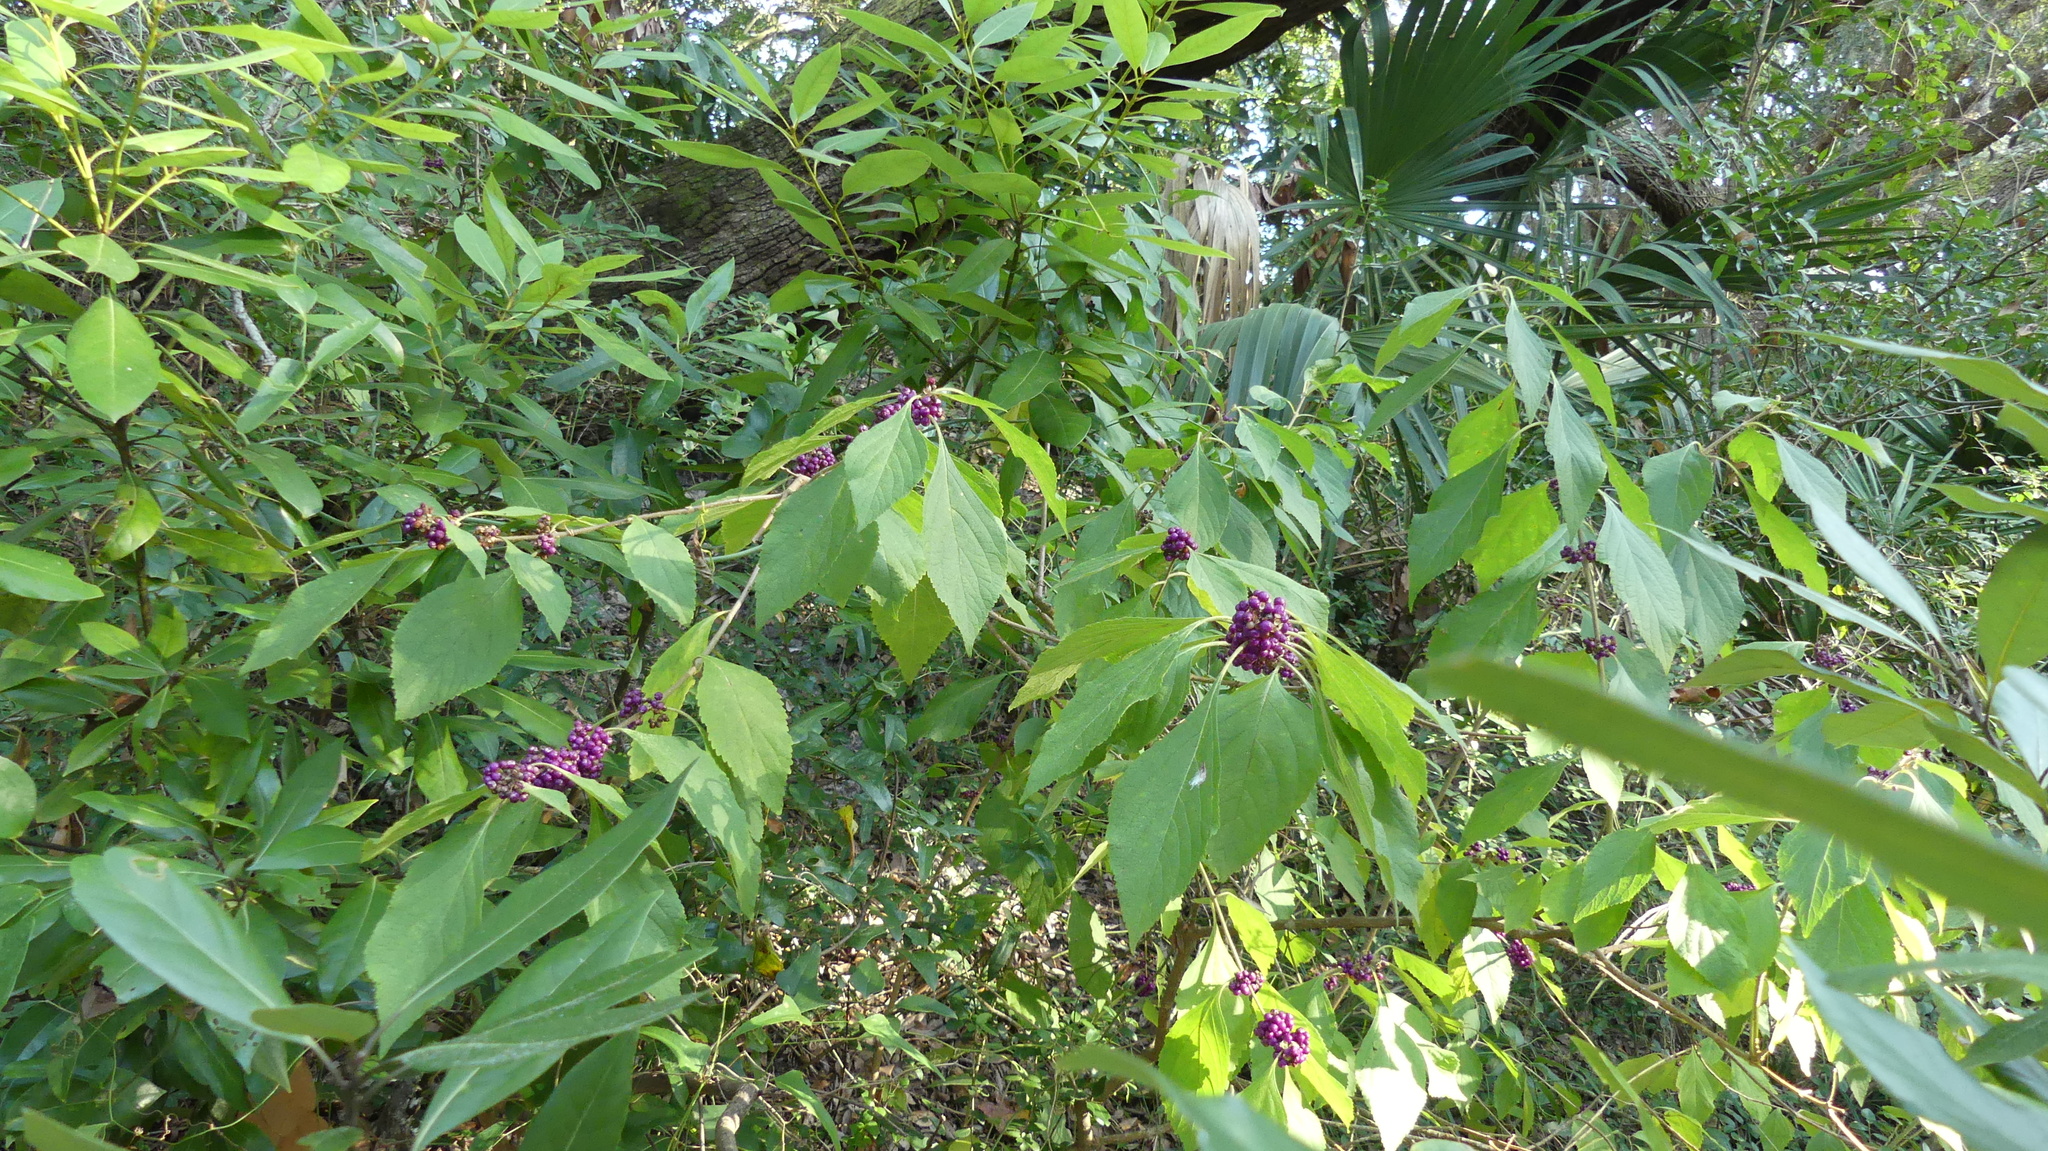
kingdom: Plantae
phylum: Tracheophyta
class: Magnoliopsida
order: Lamiales
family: Lamiaceae
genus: Callicarpa
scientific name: Callicarpa americana
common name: American beautyberry
